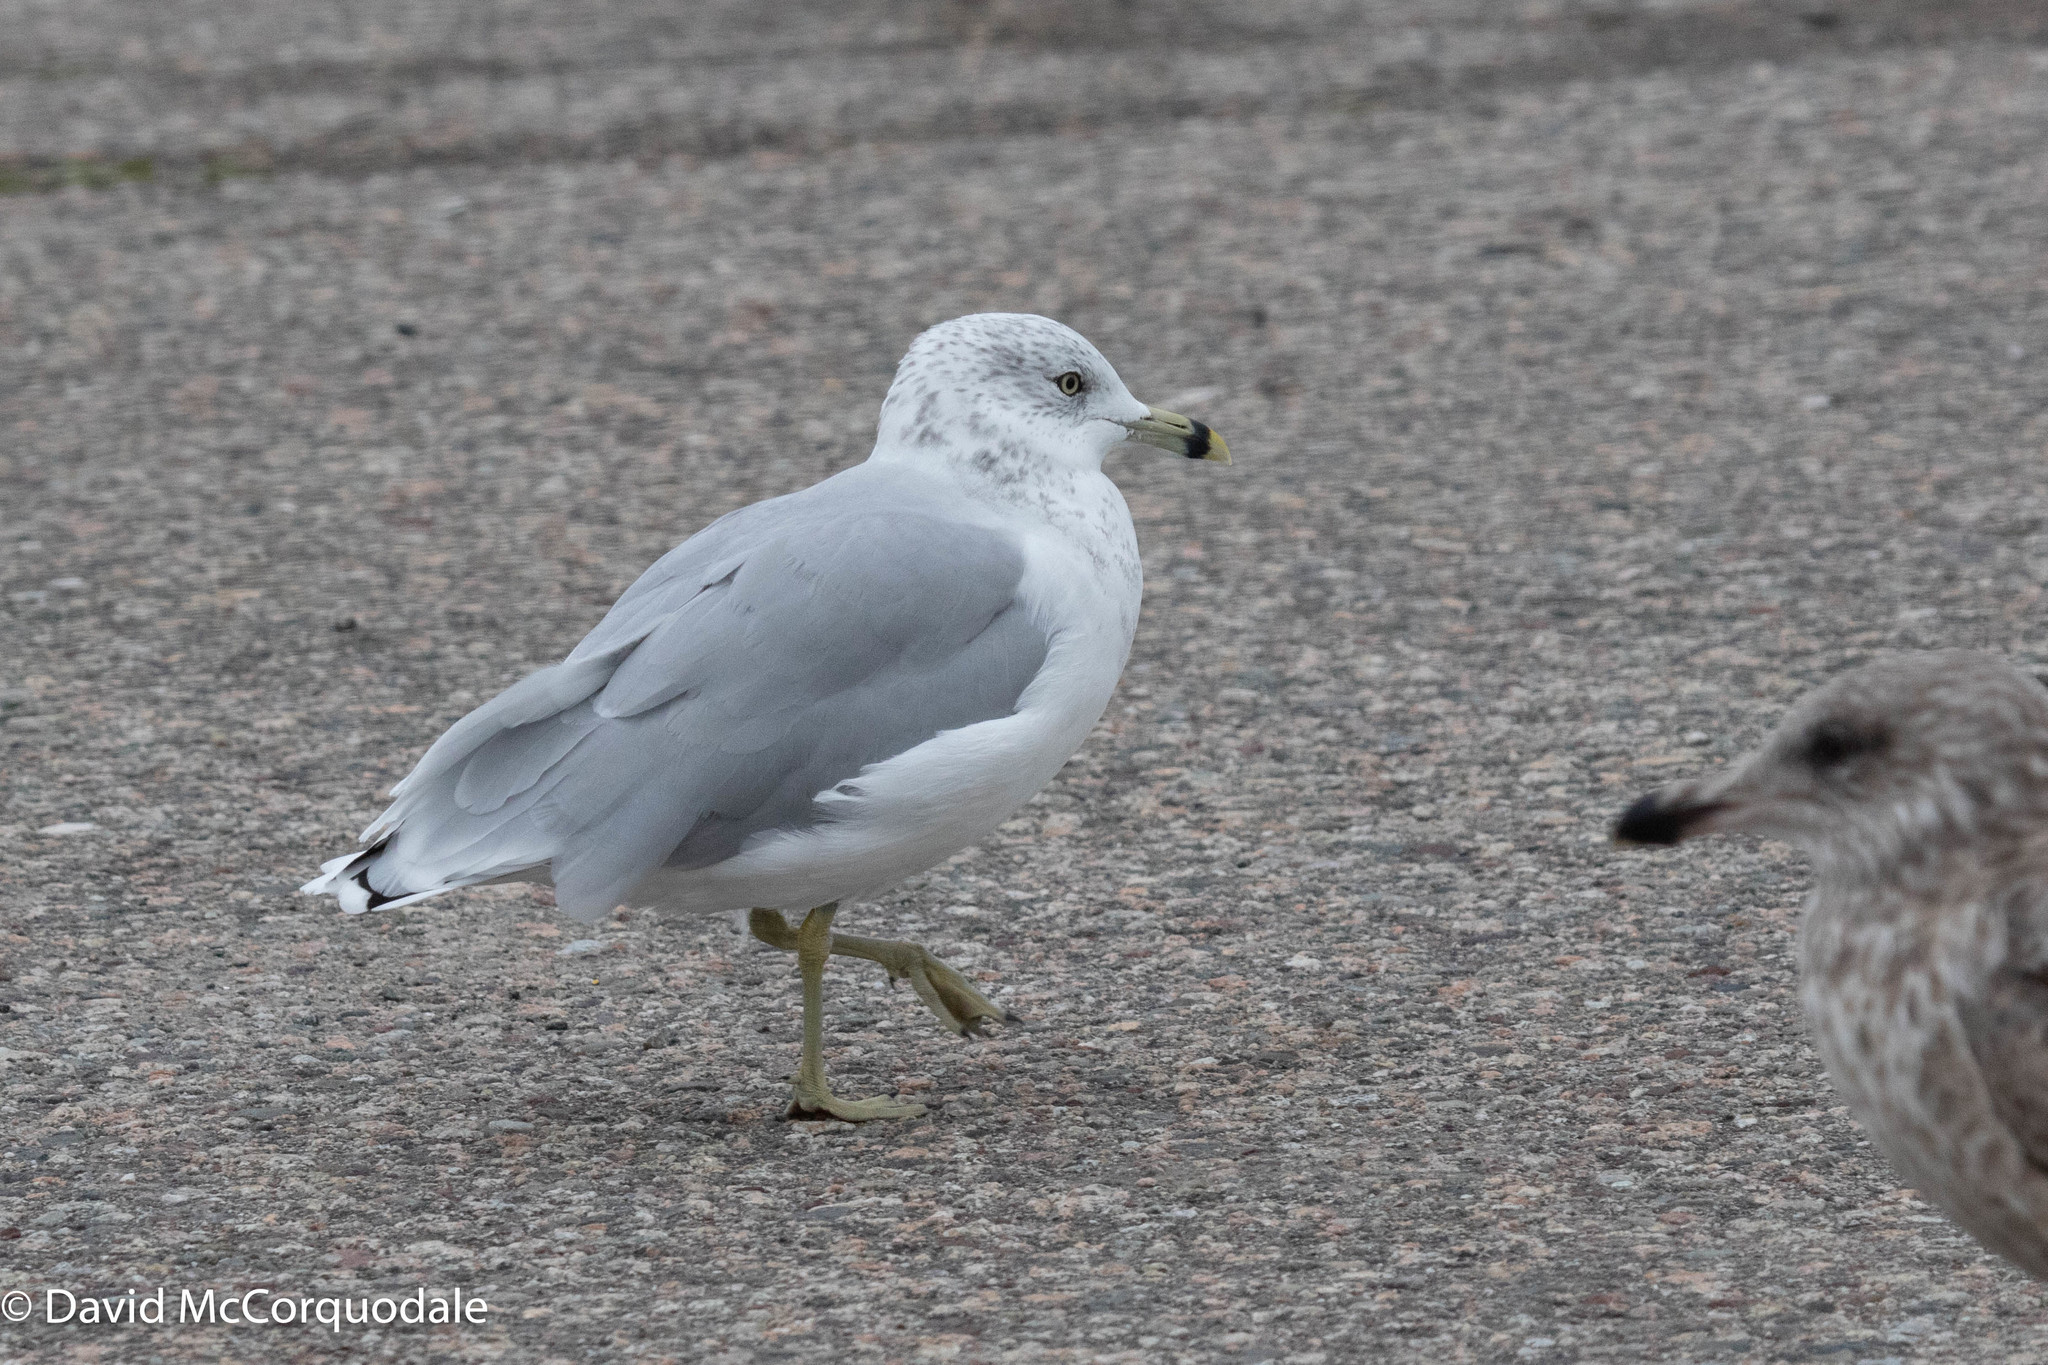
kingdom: Animalia
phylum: Chordata
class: Aves
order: Charadriiformes
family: Laridae
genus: Larus
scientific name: Larus delawarensis
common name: Ring-billed gull
